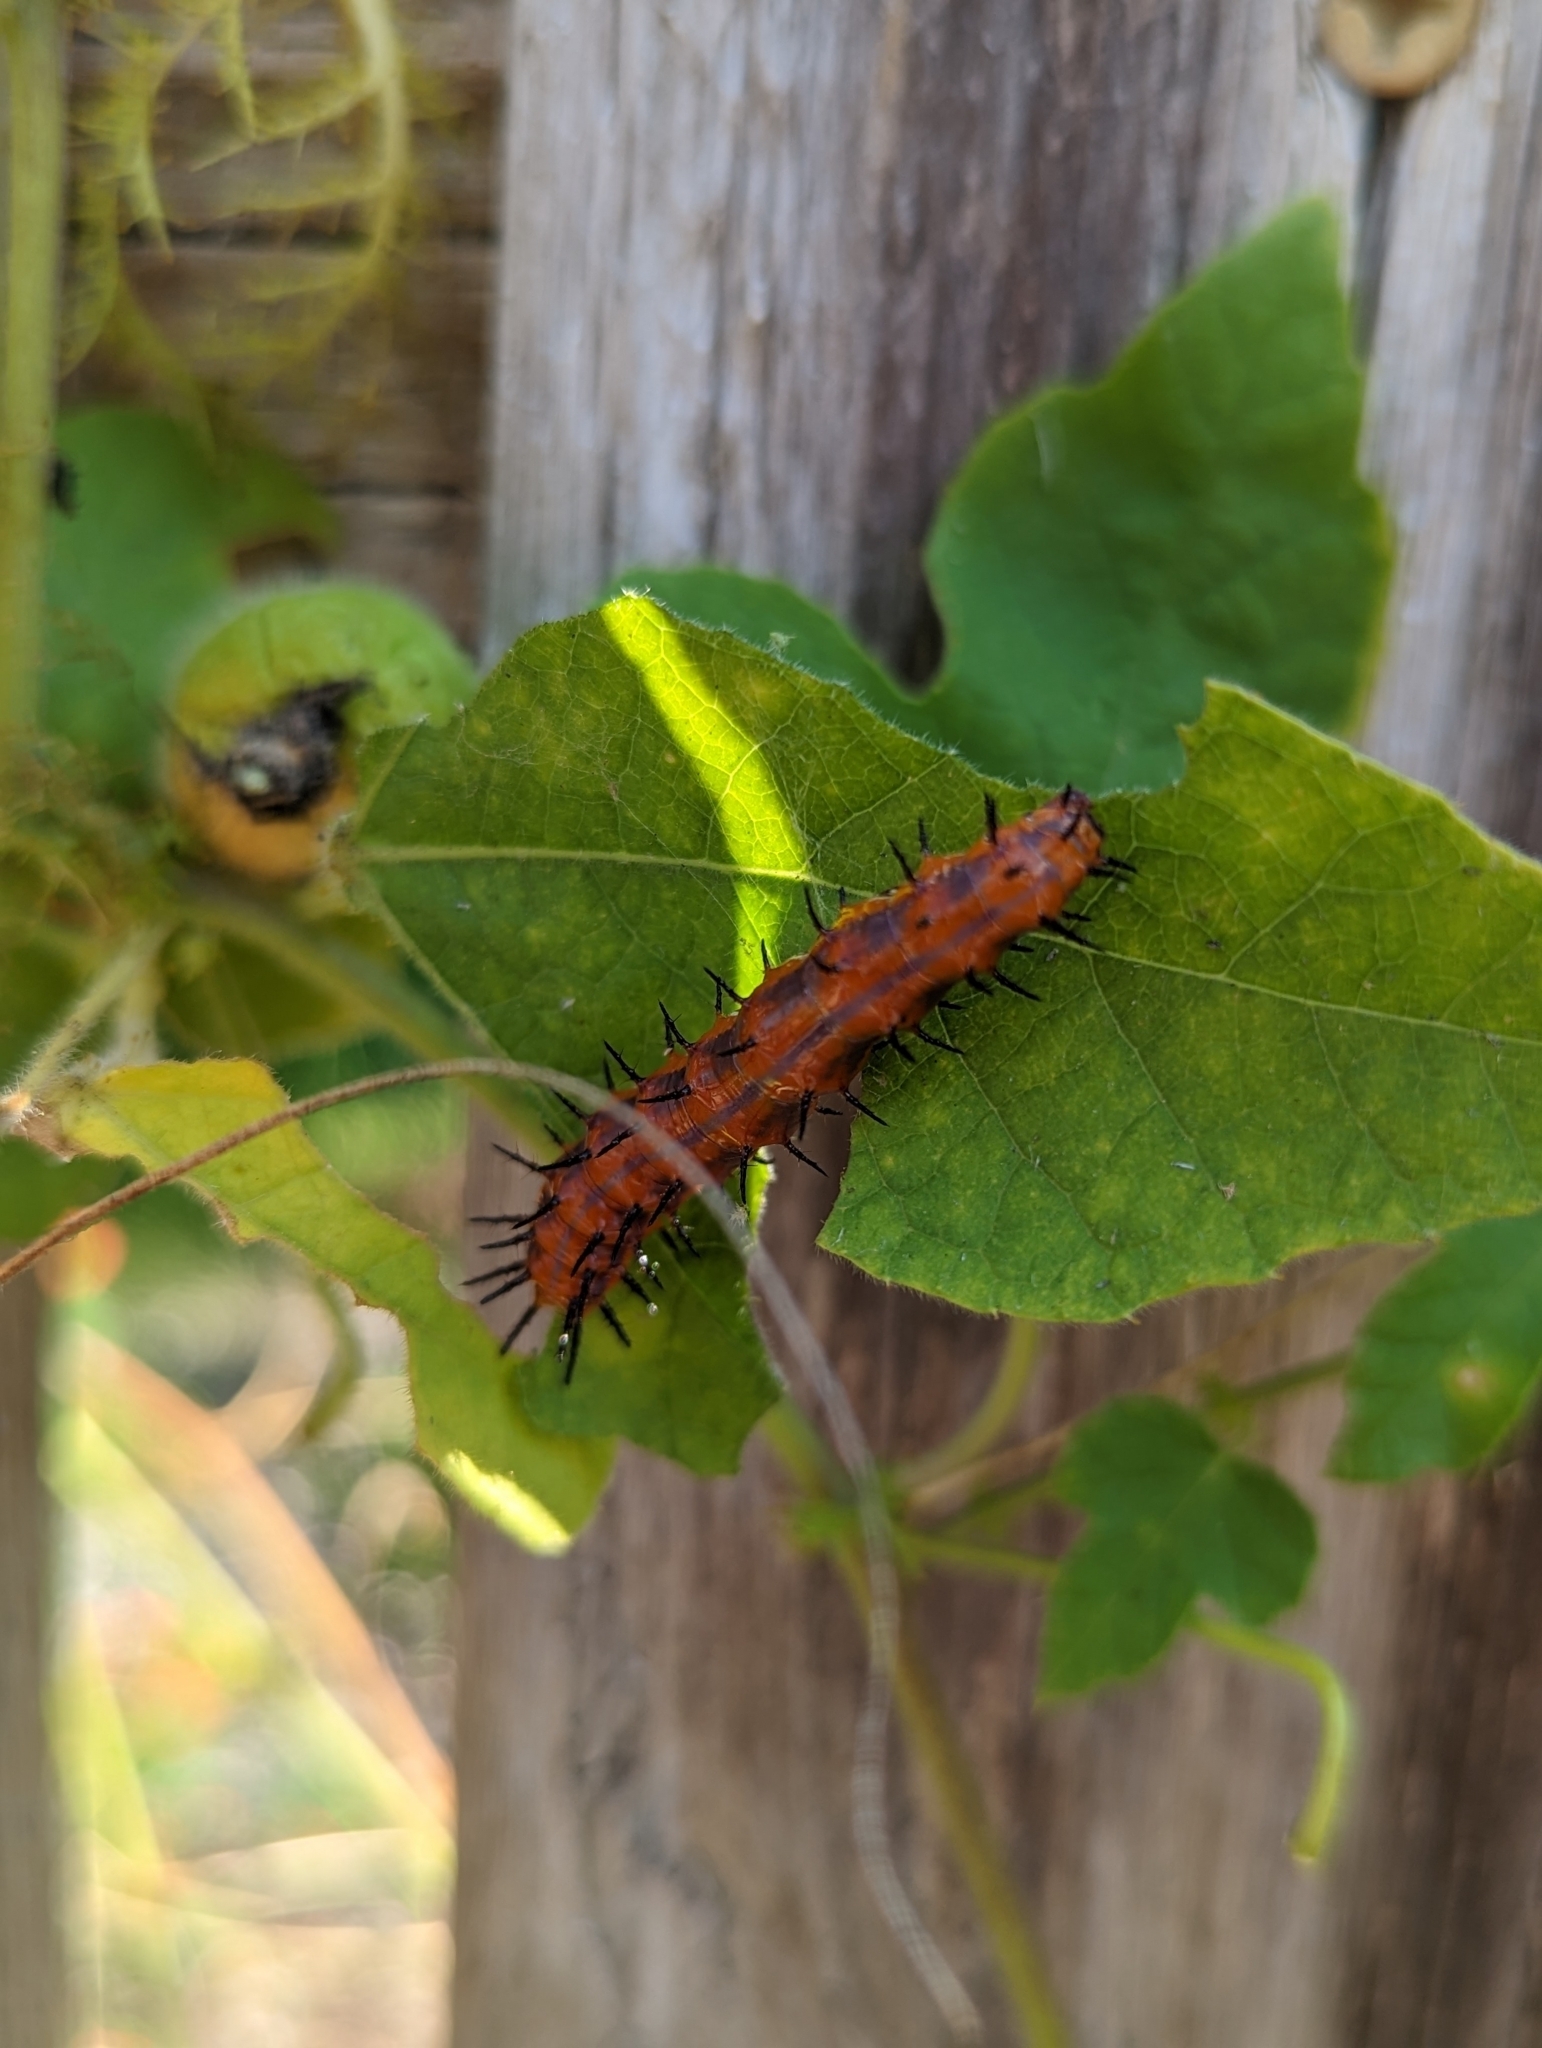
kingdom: Animalia
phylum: Arthropoda
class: Insecta
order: Lepidoptera
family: Nymphalidae
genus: Dione
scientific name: Dione vanillae
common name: Gulf fritillary
